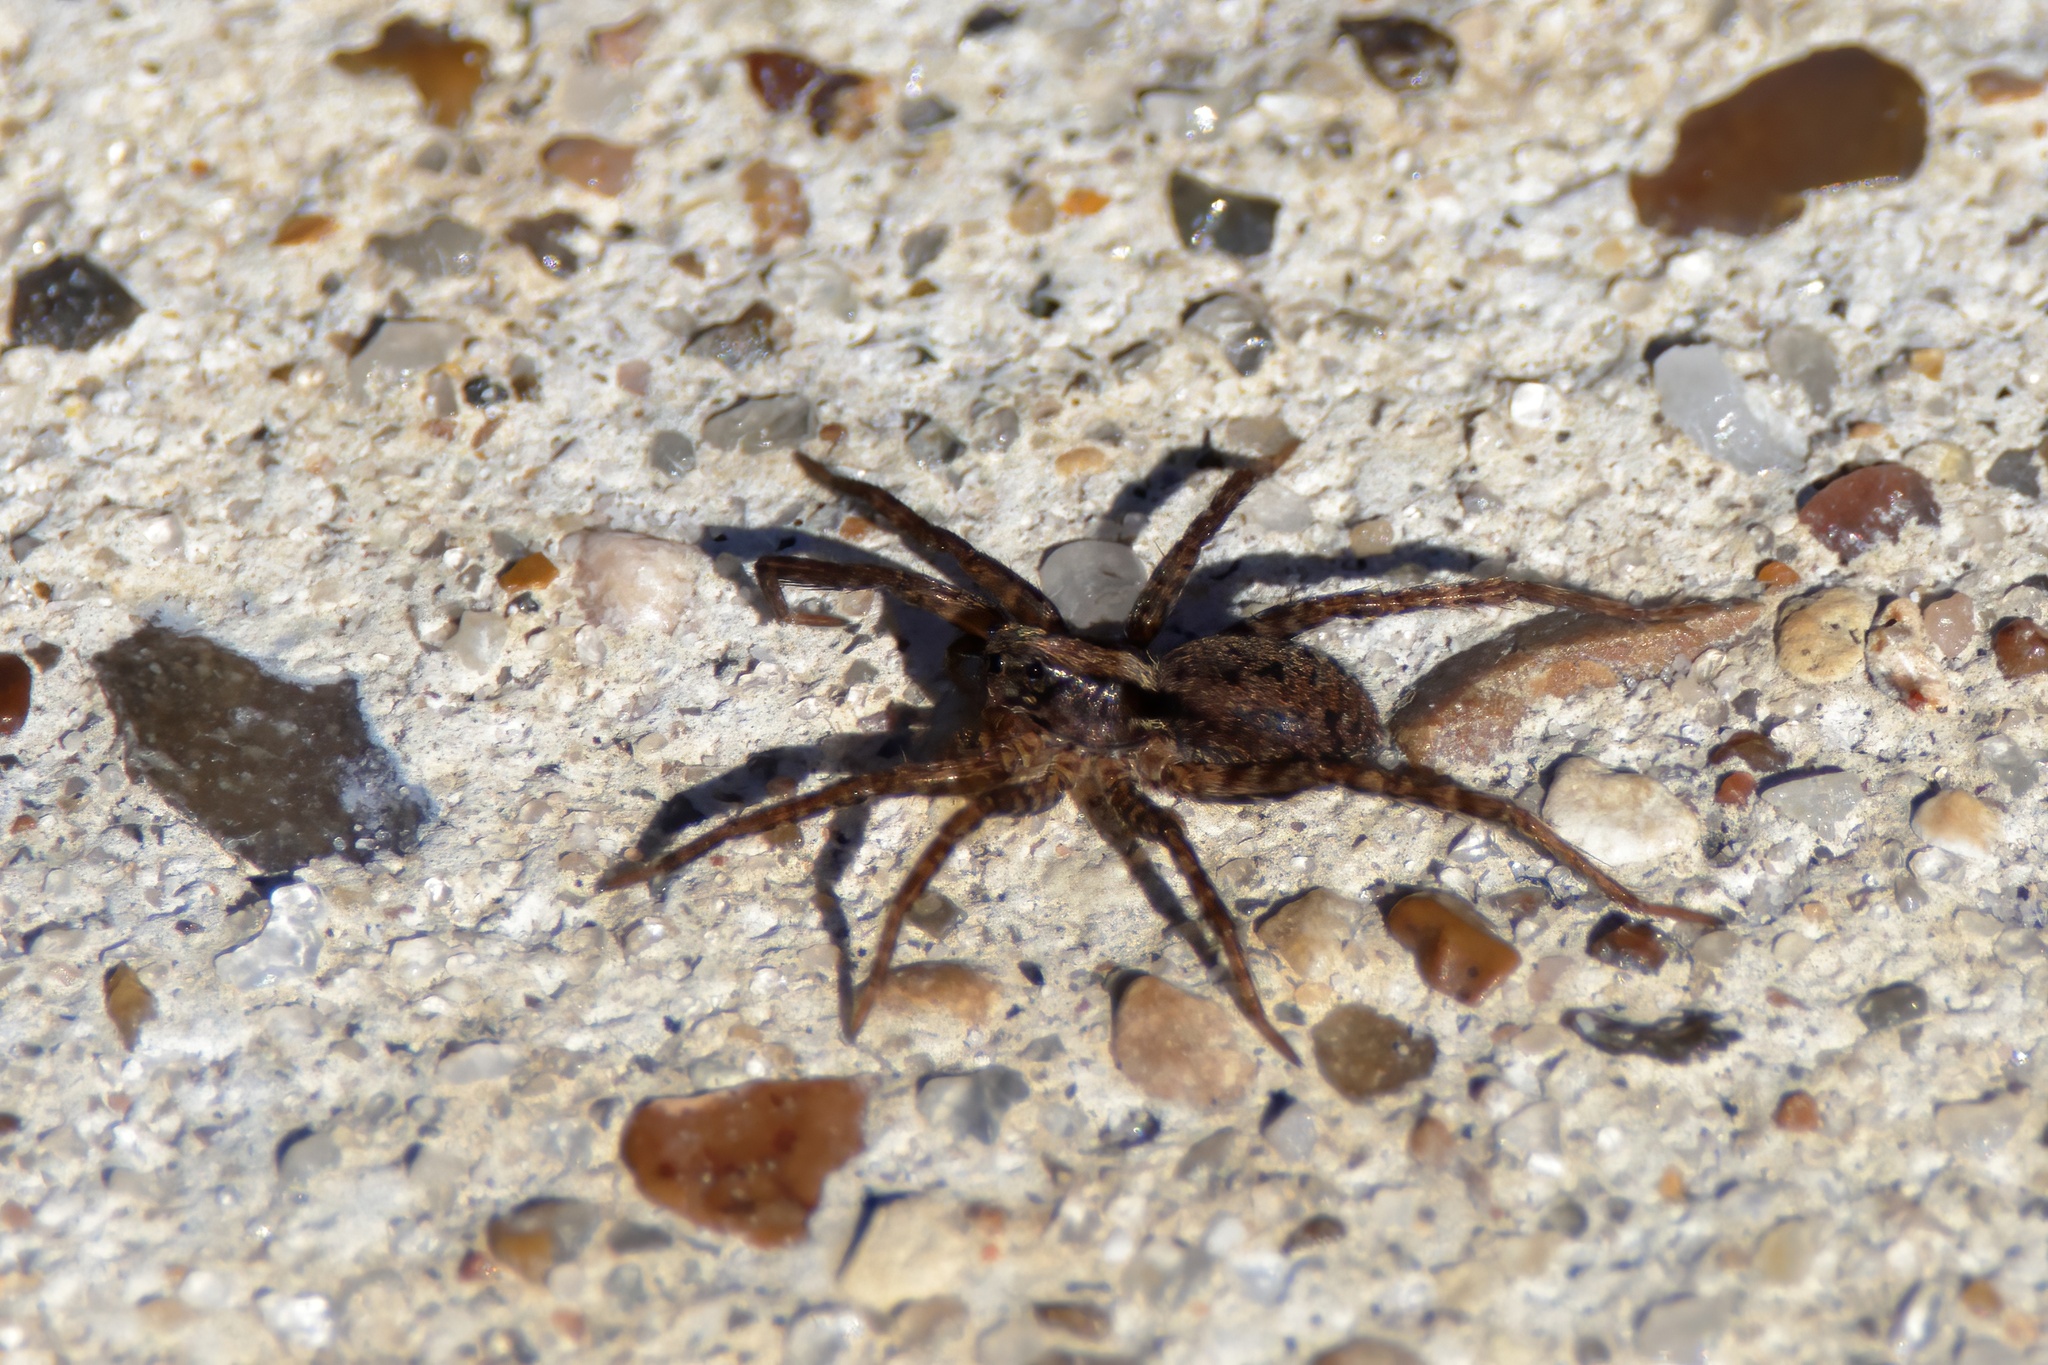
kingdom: Animalia
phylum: Arthropoda
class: Arachnida
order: Araneae
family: Lycosidae
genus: Schizocosa
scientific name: Schizocosa avida
